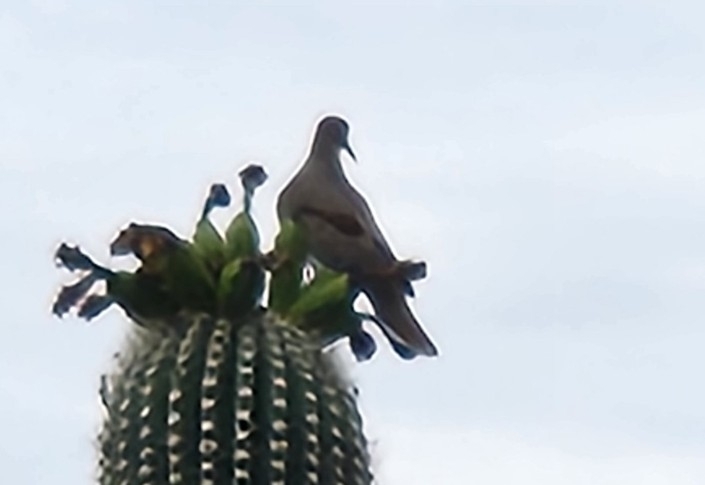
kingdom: Animalia
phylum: Chordata
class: Aves
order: Columbiformes
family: Columbidae
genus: Zenaida
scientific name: Zenaida asiatica
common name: White-winged dove
